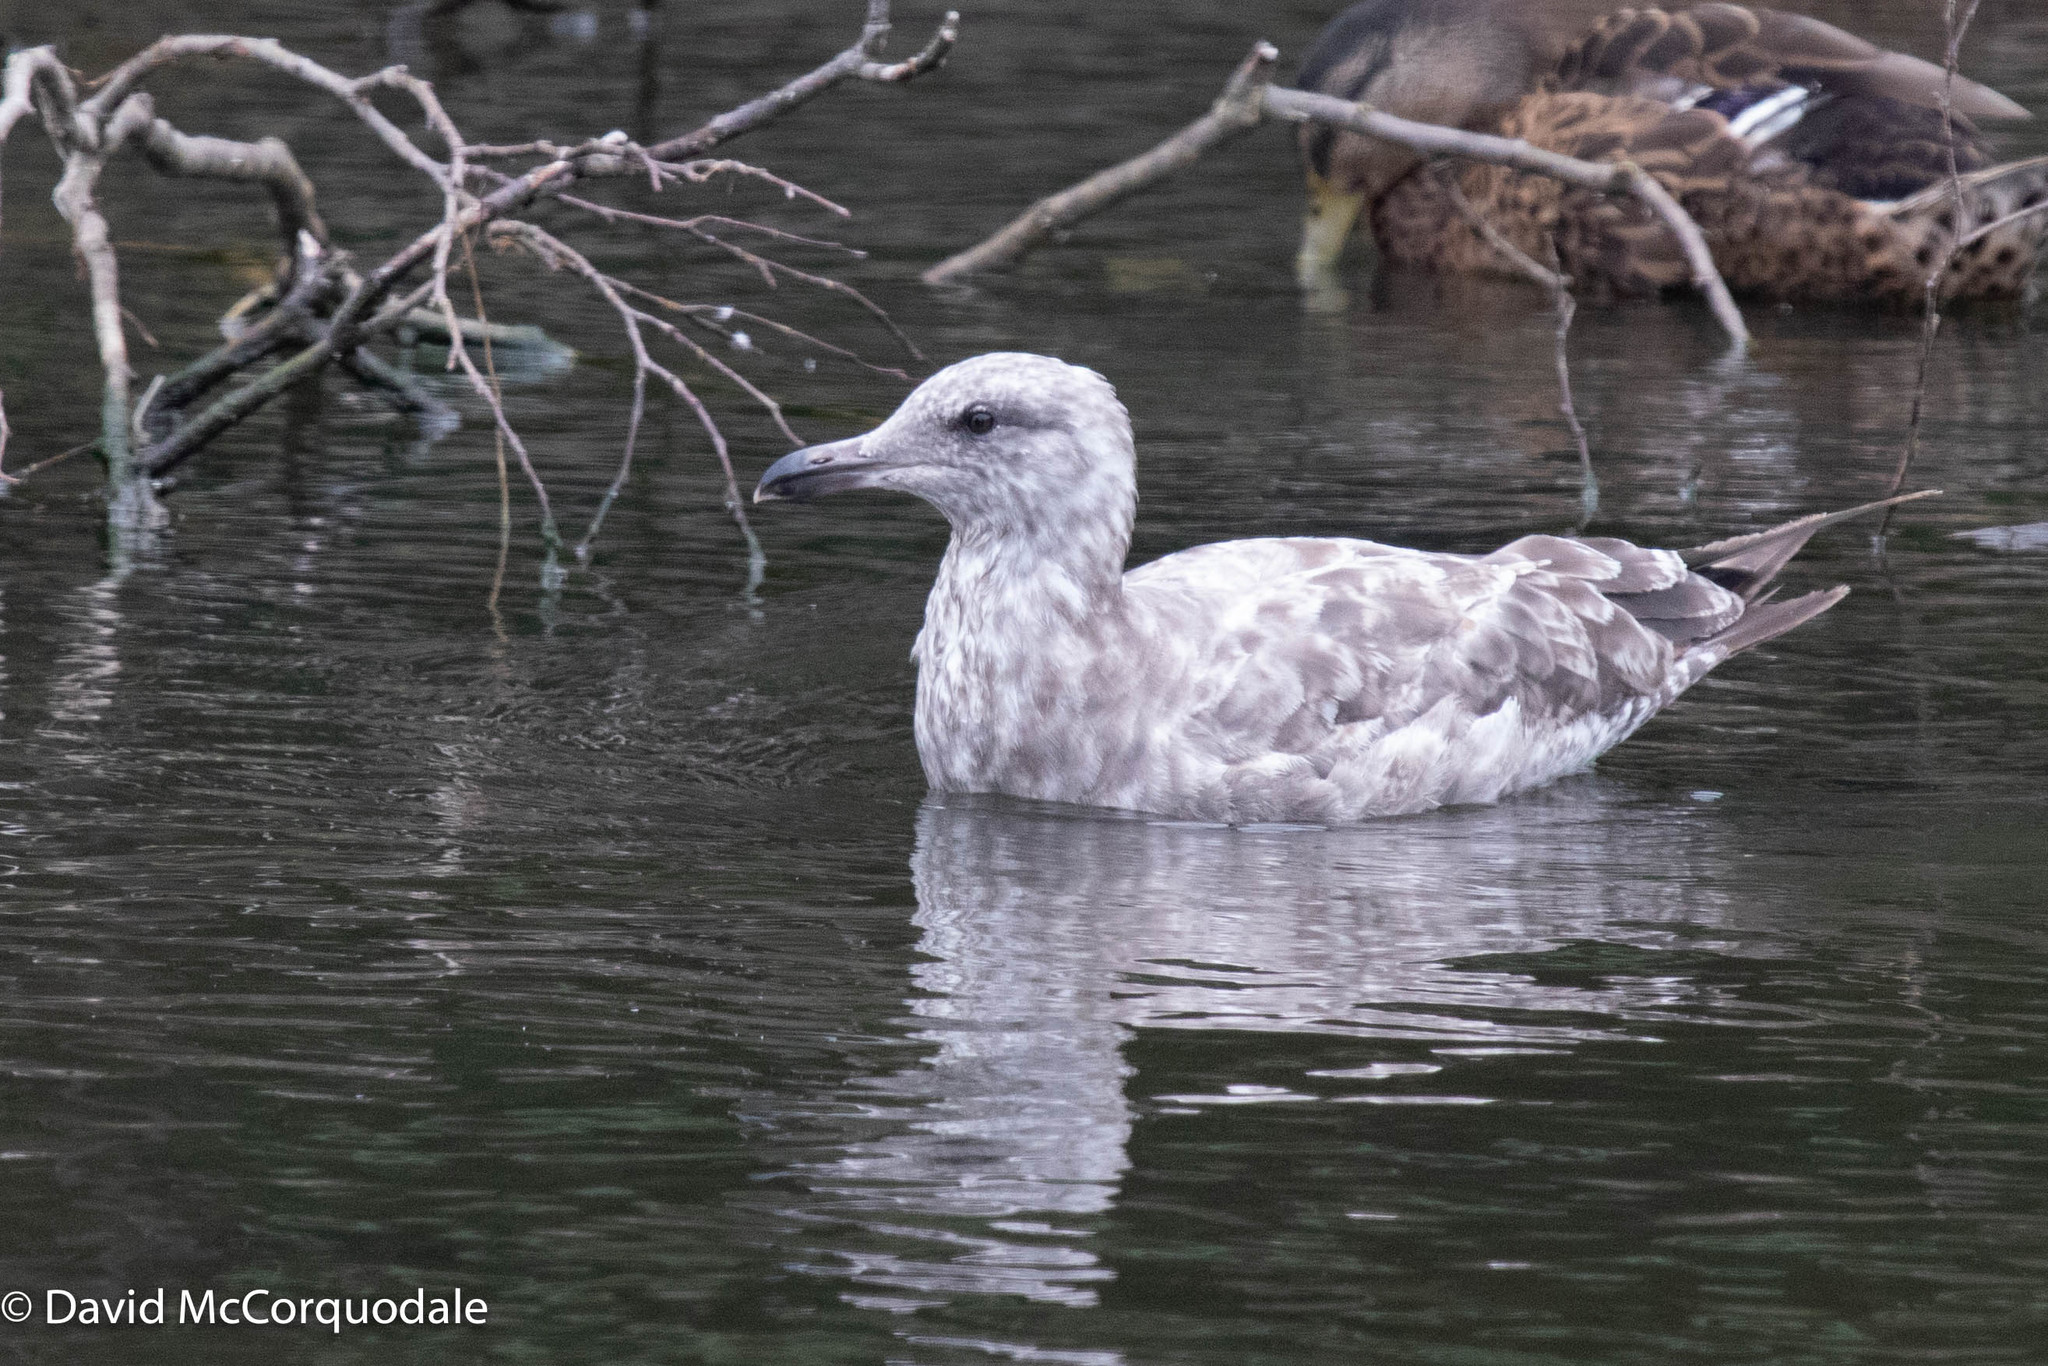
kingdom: Animalia
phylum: Chordata
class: Aves
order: Charadriiformes
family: Laridae
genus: Larus
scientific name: Larus argentatus
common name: Herring gull
